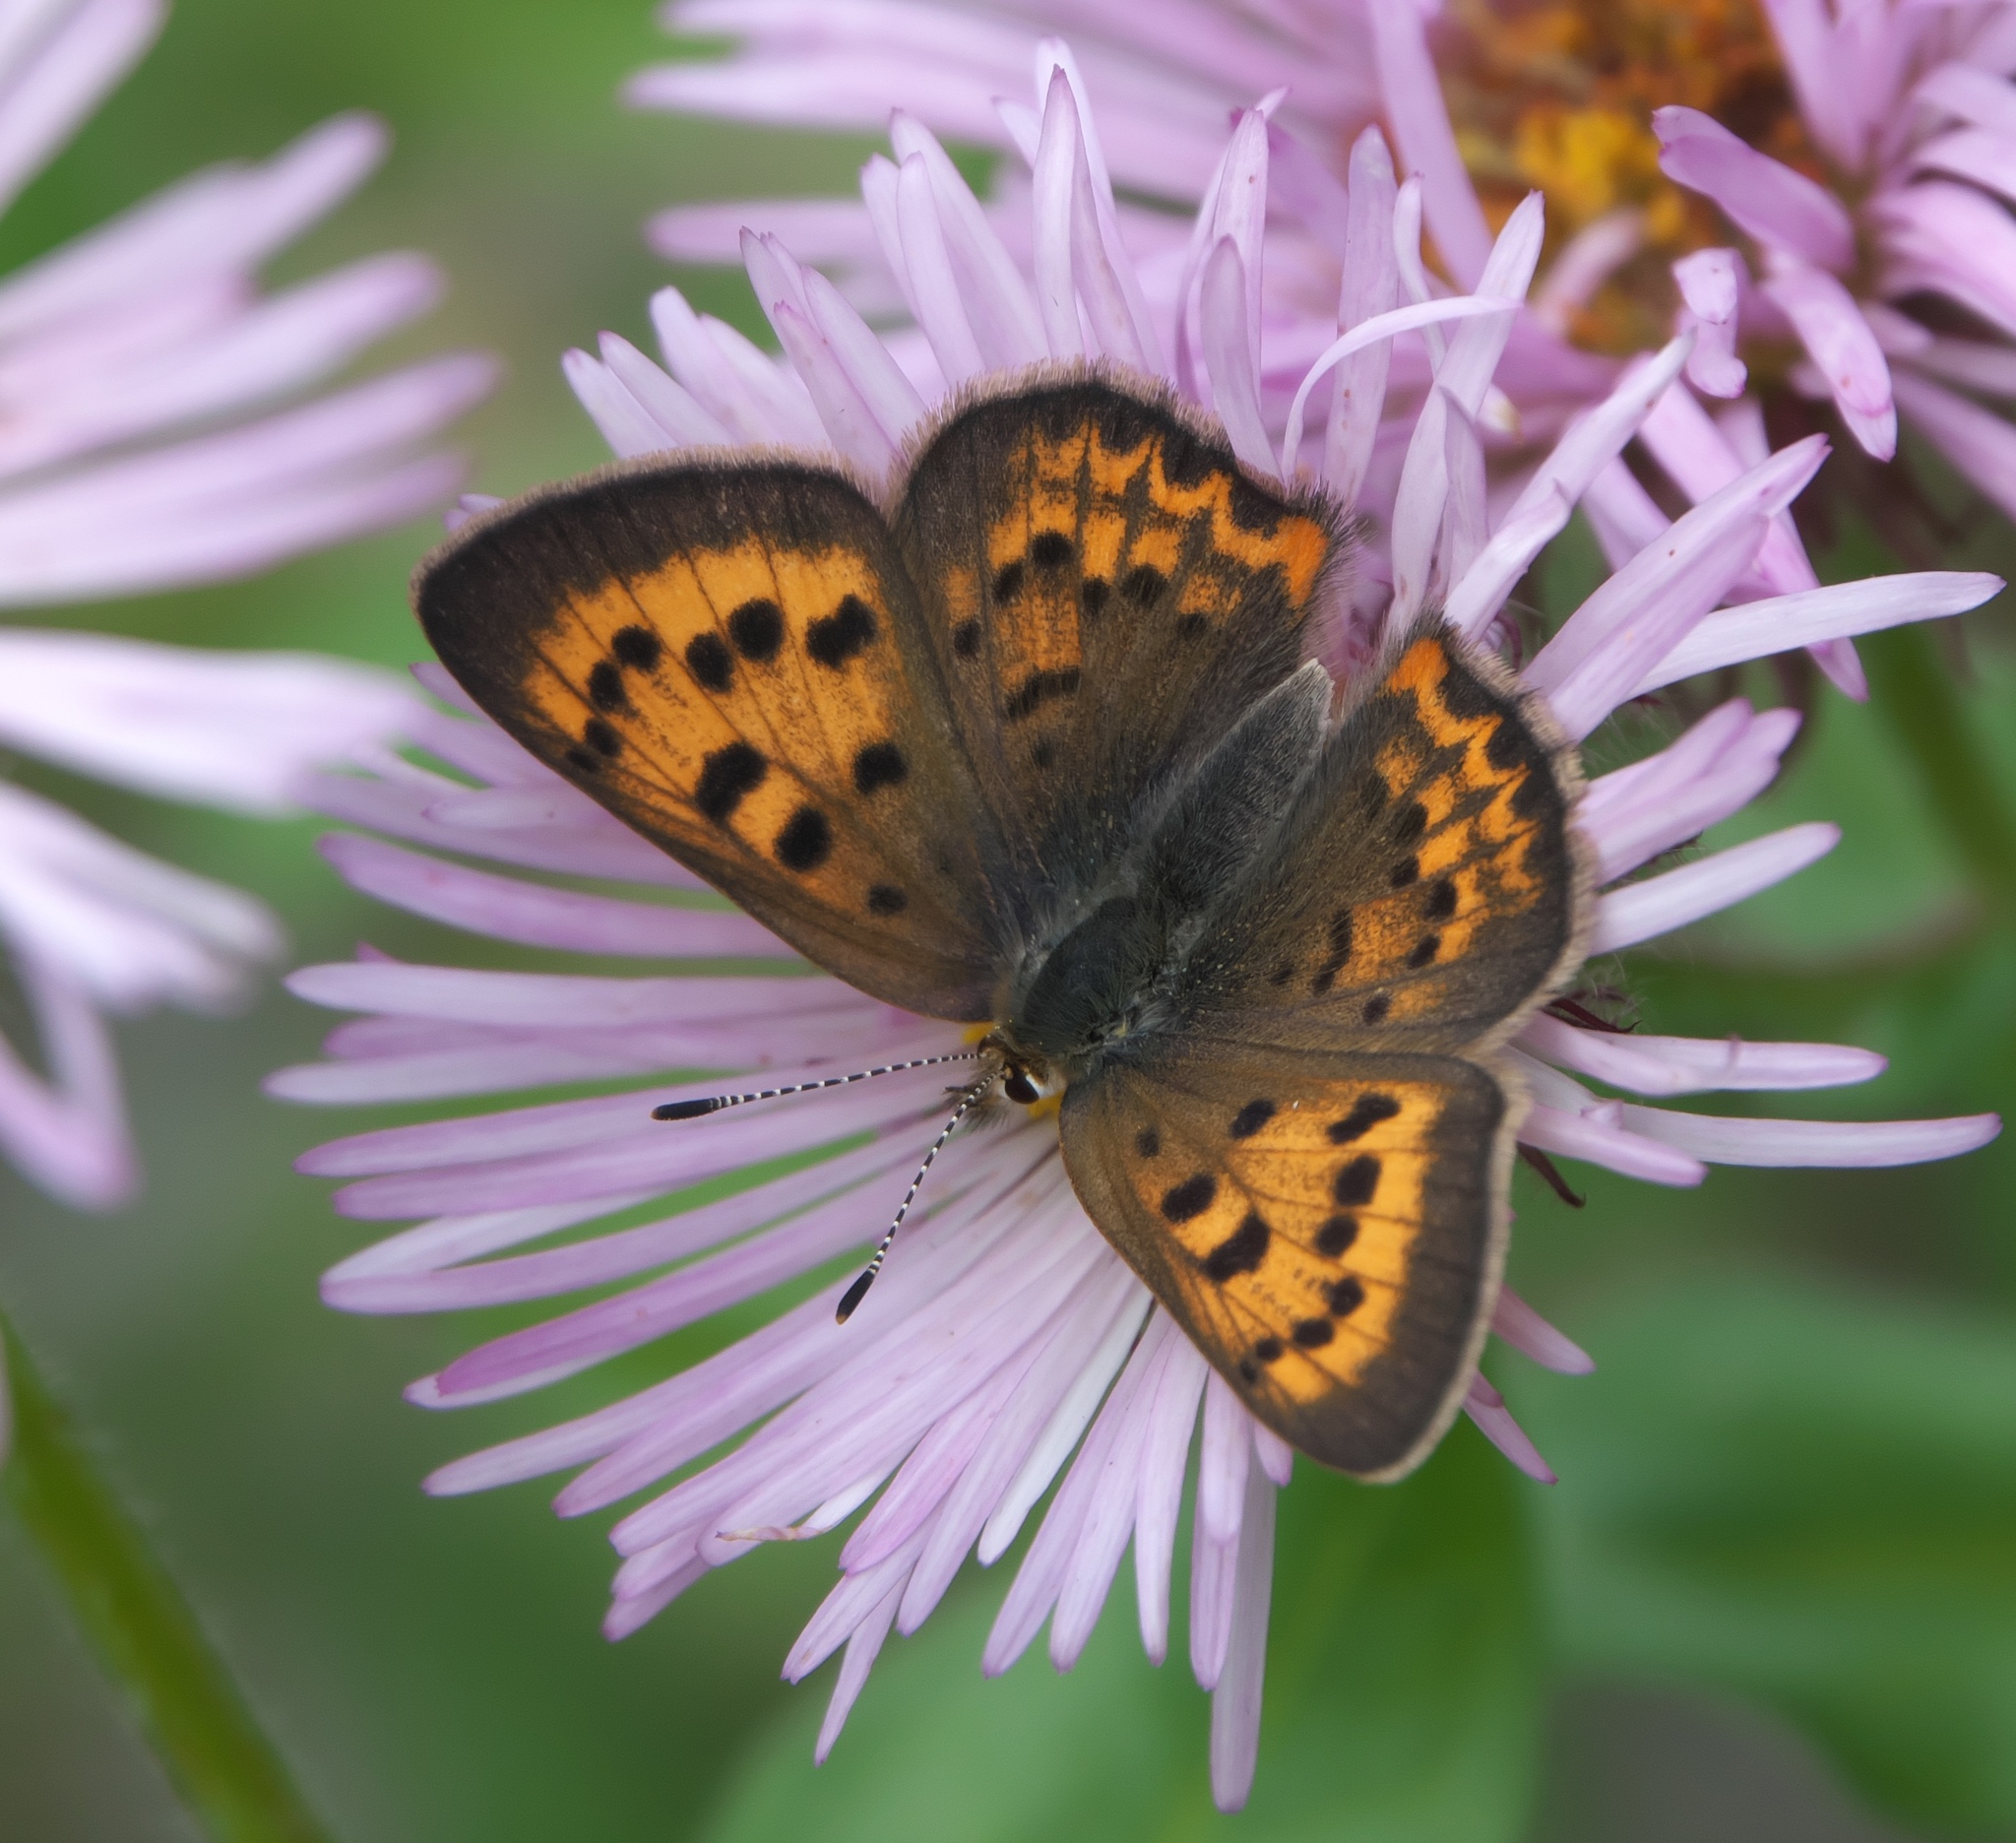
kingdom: Animalia
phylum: Arthropoda
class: Insecta
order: Lepidoptera
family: Lycaenidae
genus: Tharsalea
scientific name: Tharsalea dorcas
